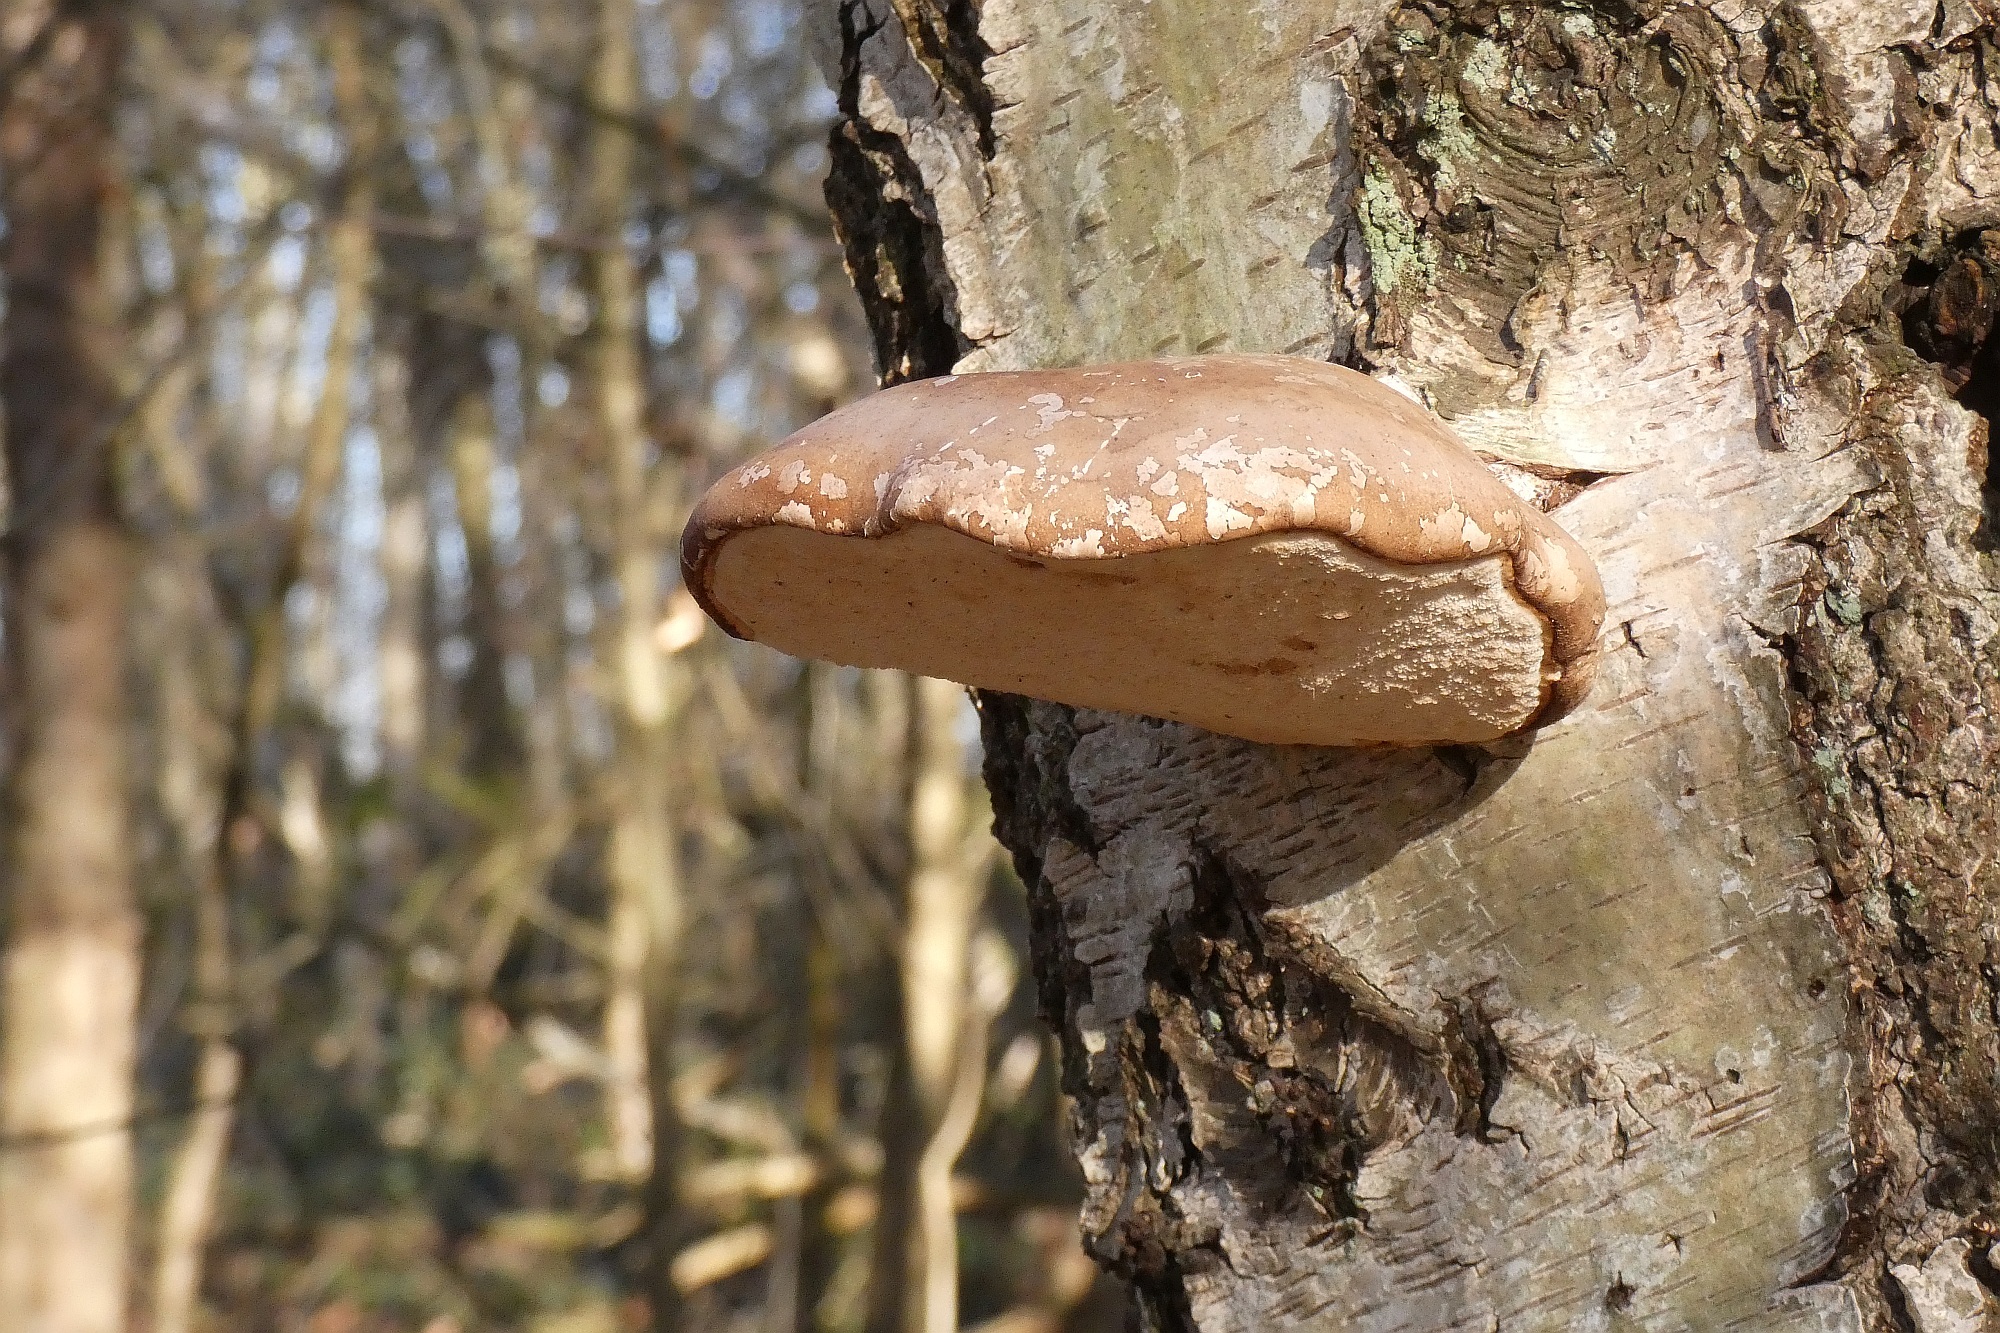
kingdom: Fungi
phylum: Basidiomycota
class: Agaricomycetes
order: Polyporales
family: Fomitopsidaceae
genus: Fomitopsis
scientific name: Fomitopsis betulina
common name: Birch polypore
